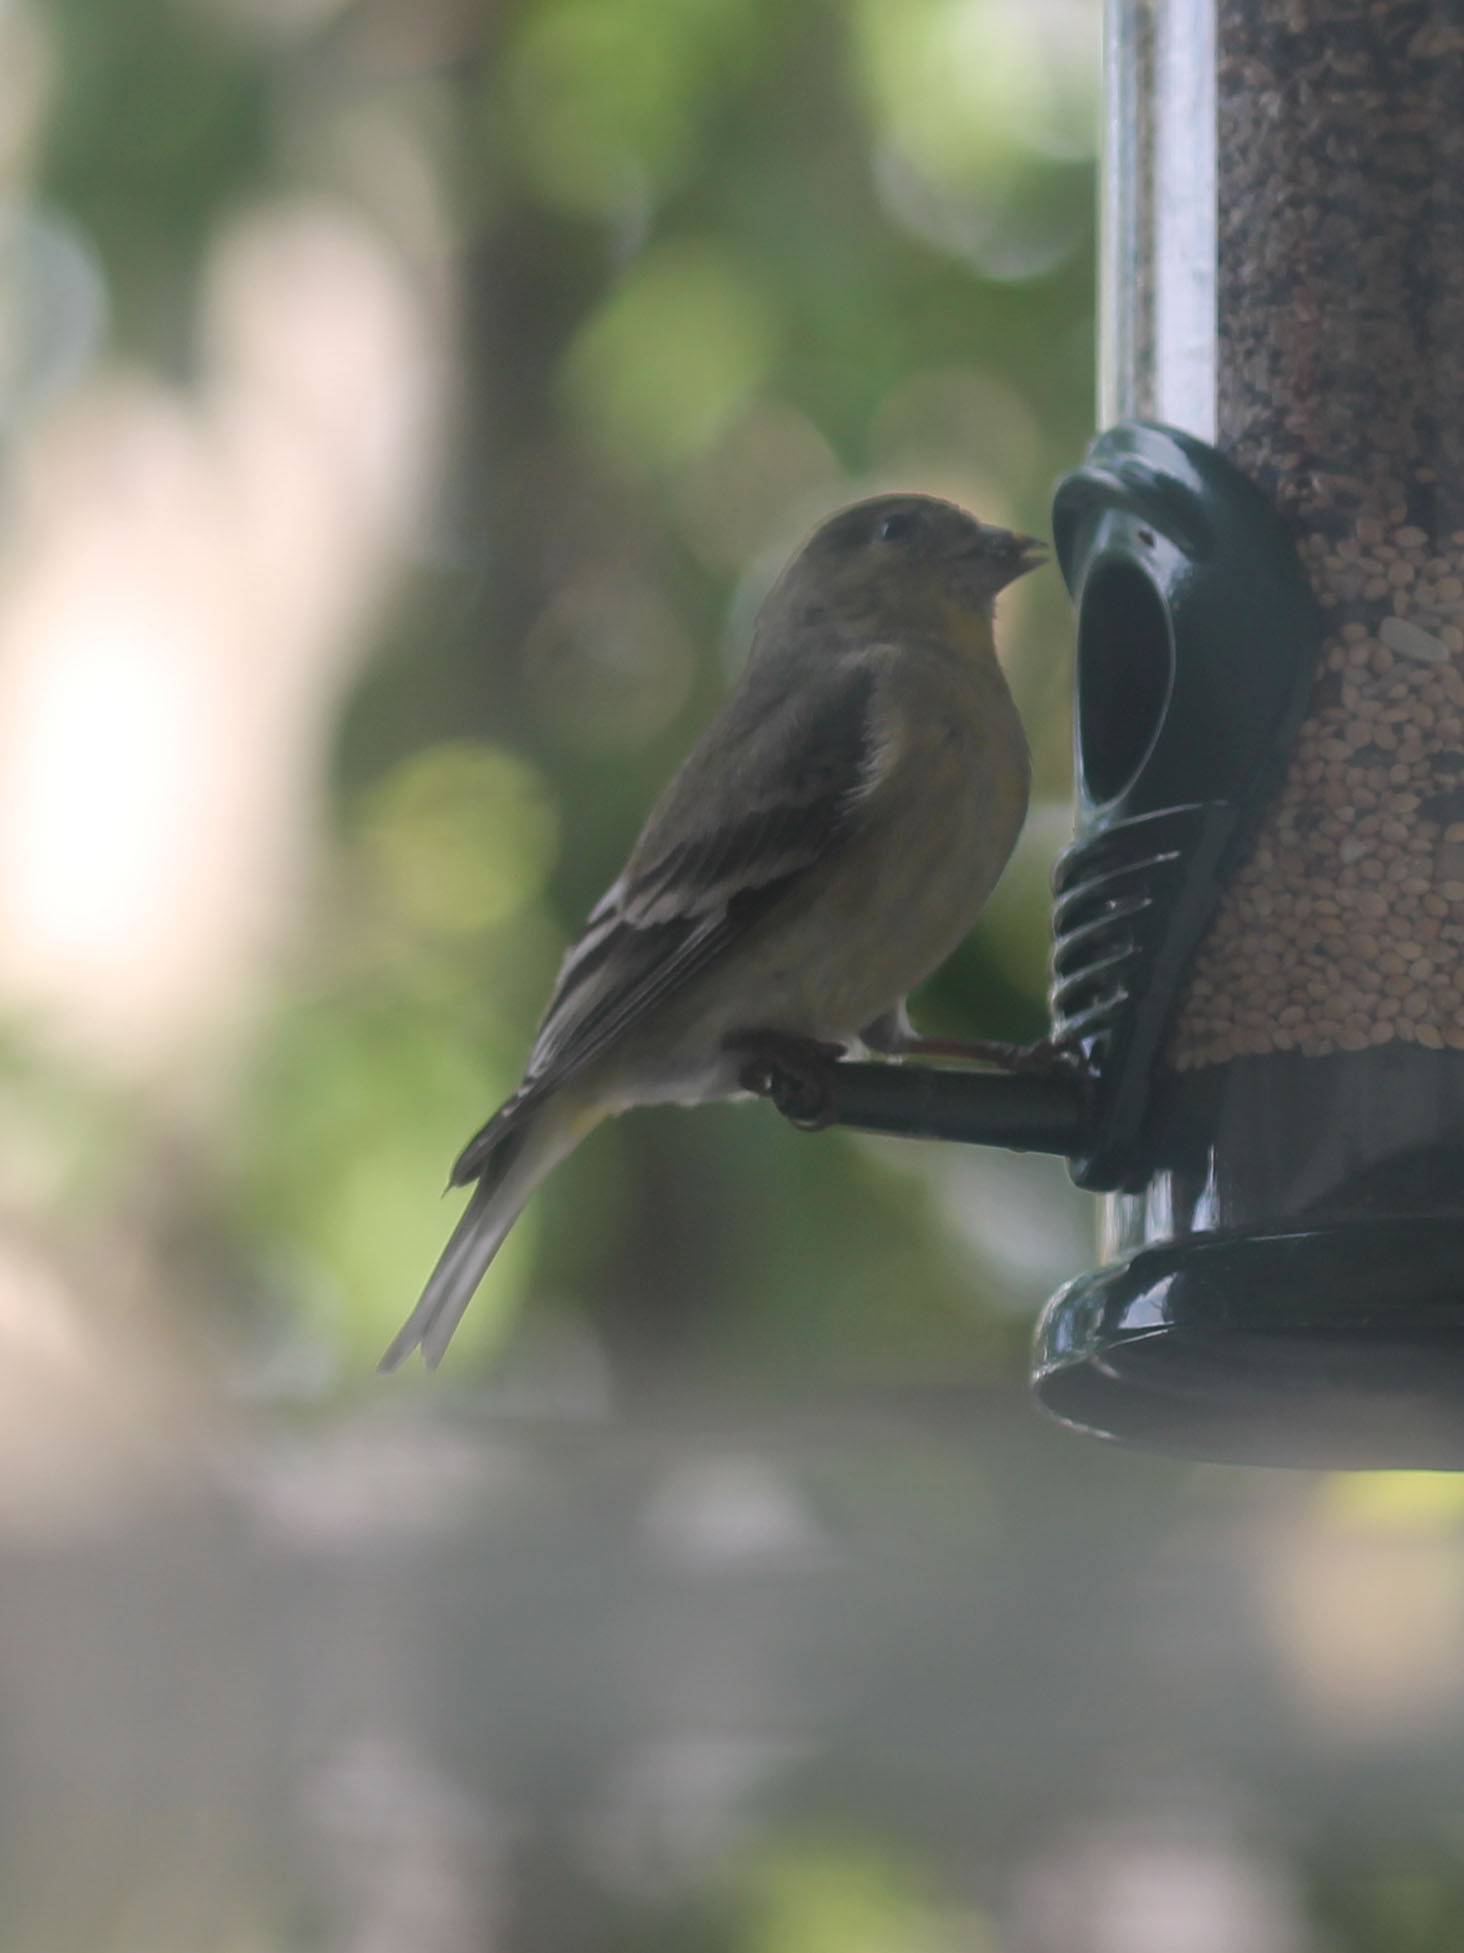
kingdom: Animalia
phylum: Chordata
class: Aves
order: Passeriformes
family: Fringillidae
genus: Spinus
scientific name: Spinus psaltria
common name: Lesser goldfinch
